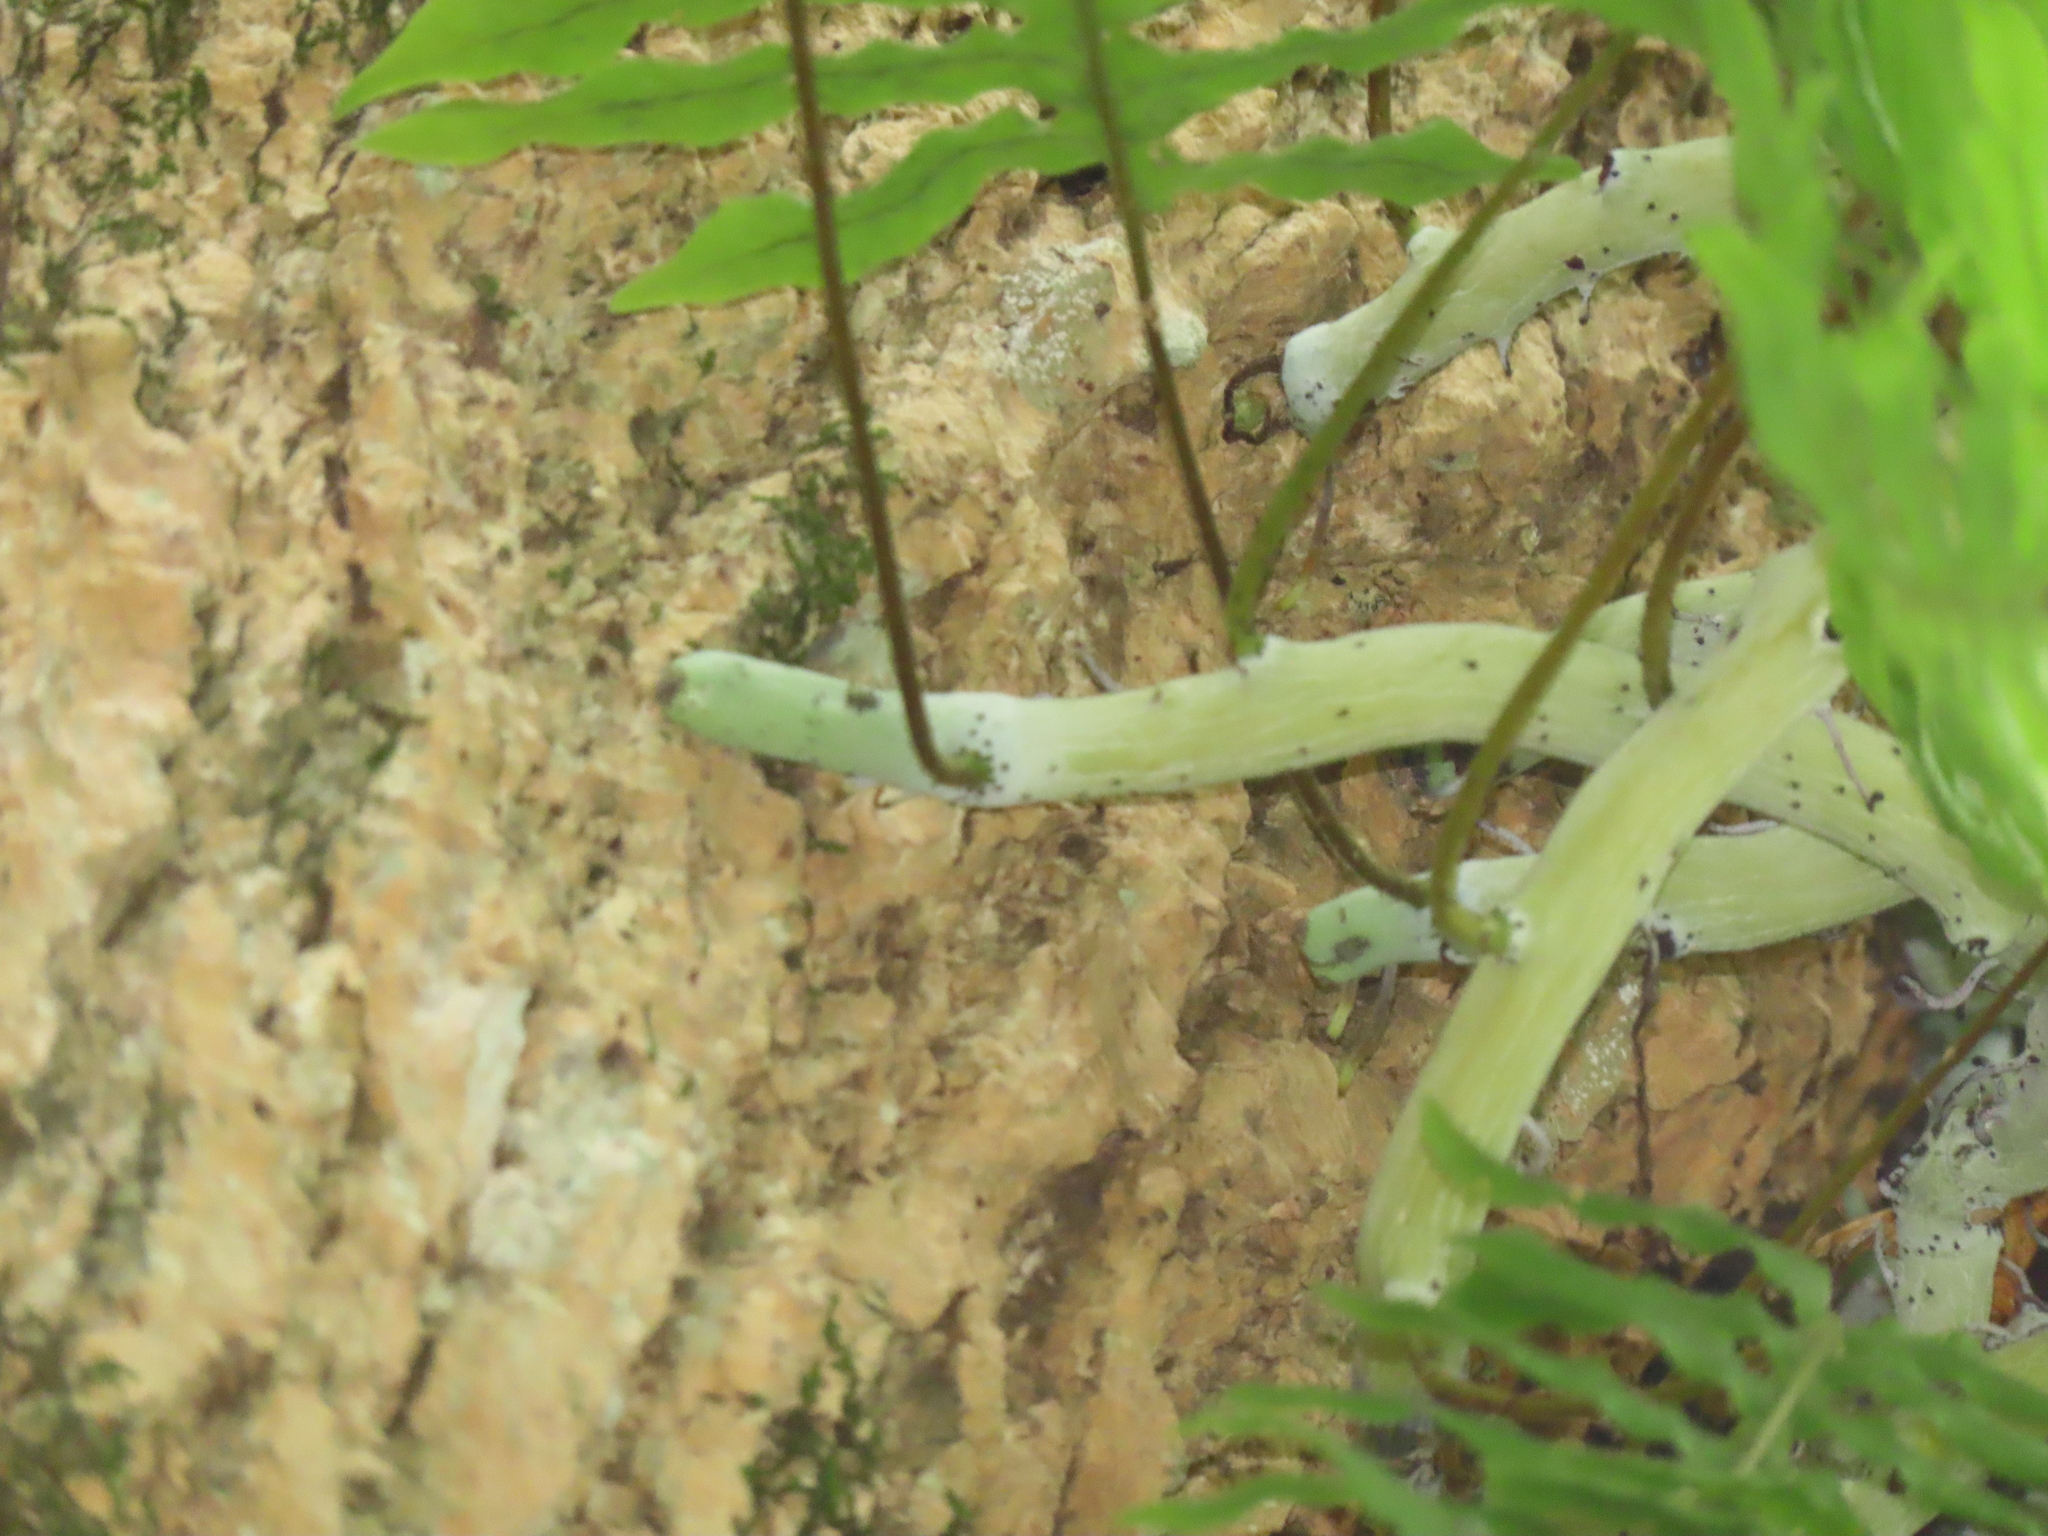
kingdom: Plantae
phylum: Tracheophyta
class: Polypodiopsida
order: Polypodiales
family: Polypodiaceae
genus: Goniophlebium
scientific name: Goniophlebium formosanum
